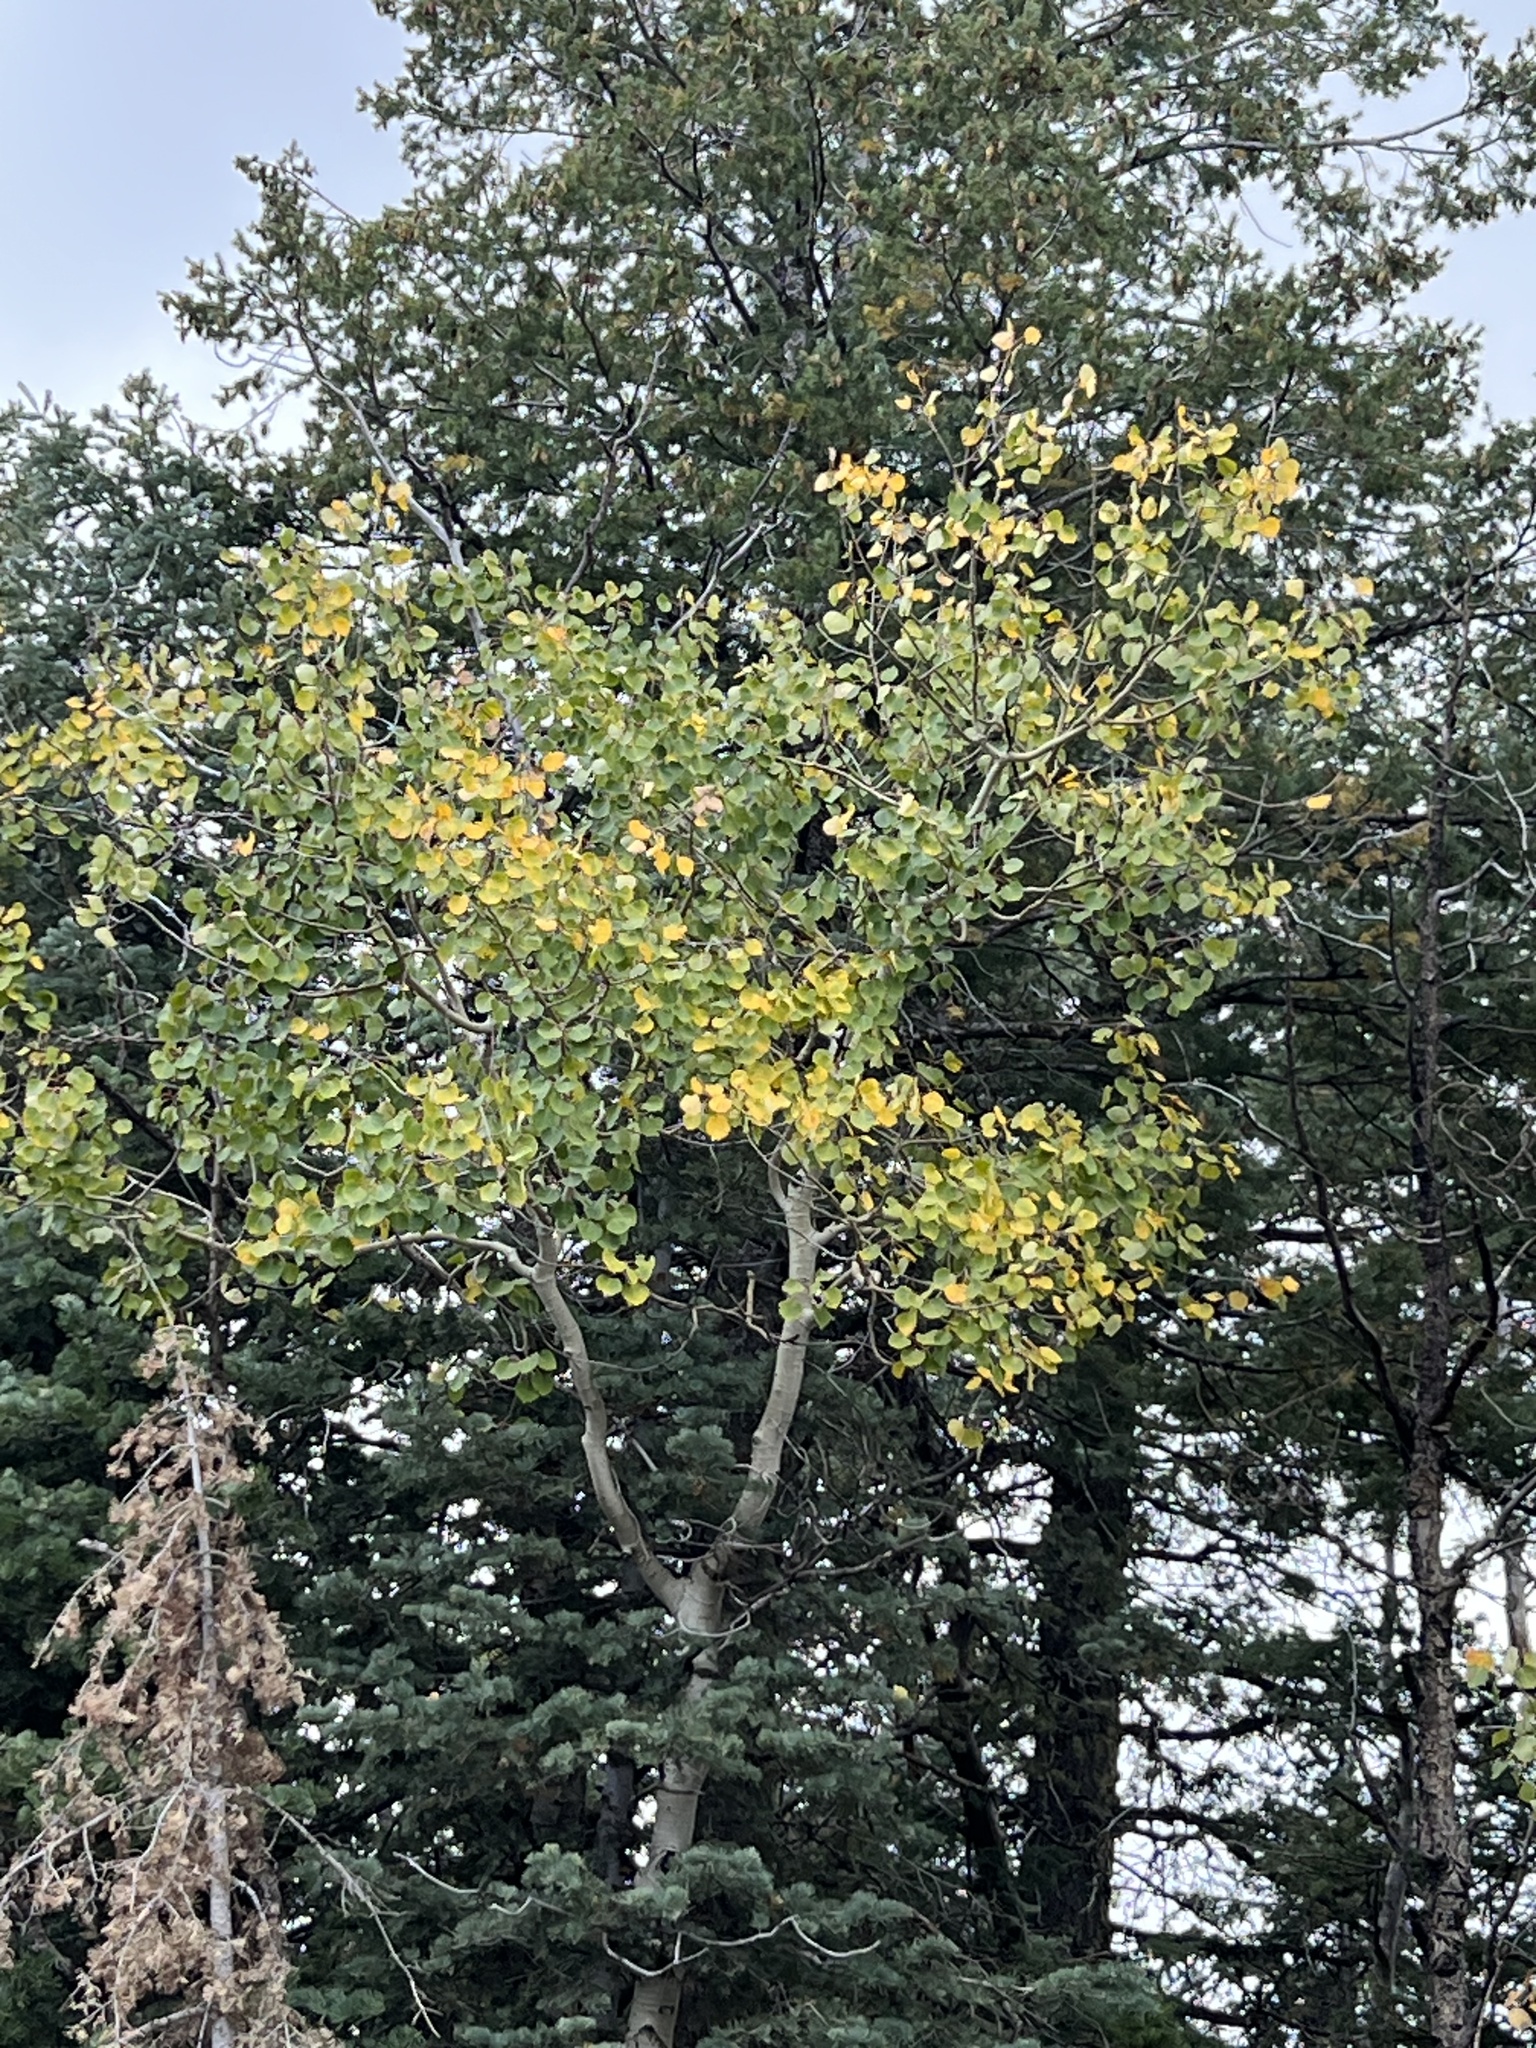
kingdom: Plantae
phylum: Tracheophyta
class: Magnoliopsida
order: Malpighiales
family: Salicaceae
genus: Populus
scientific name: Populus tremuloides
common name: Quaking aspen
